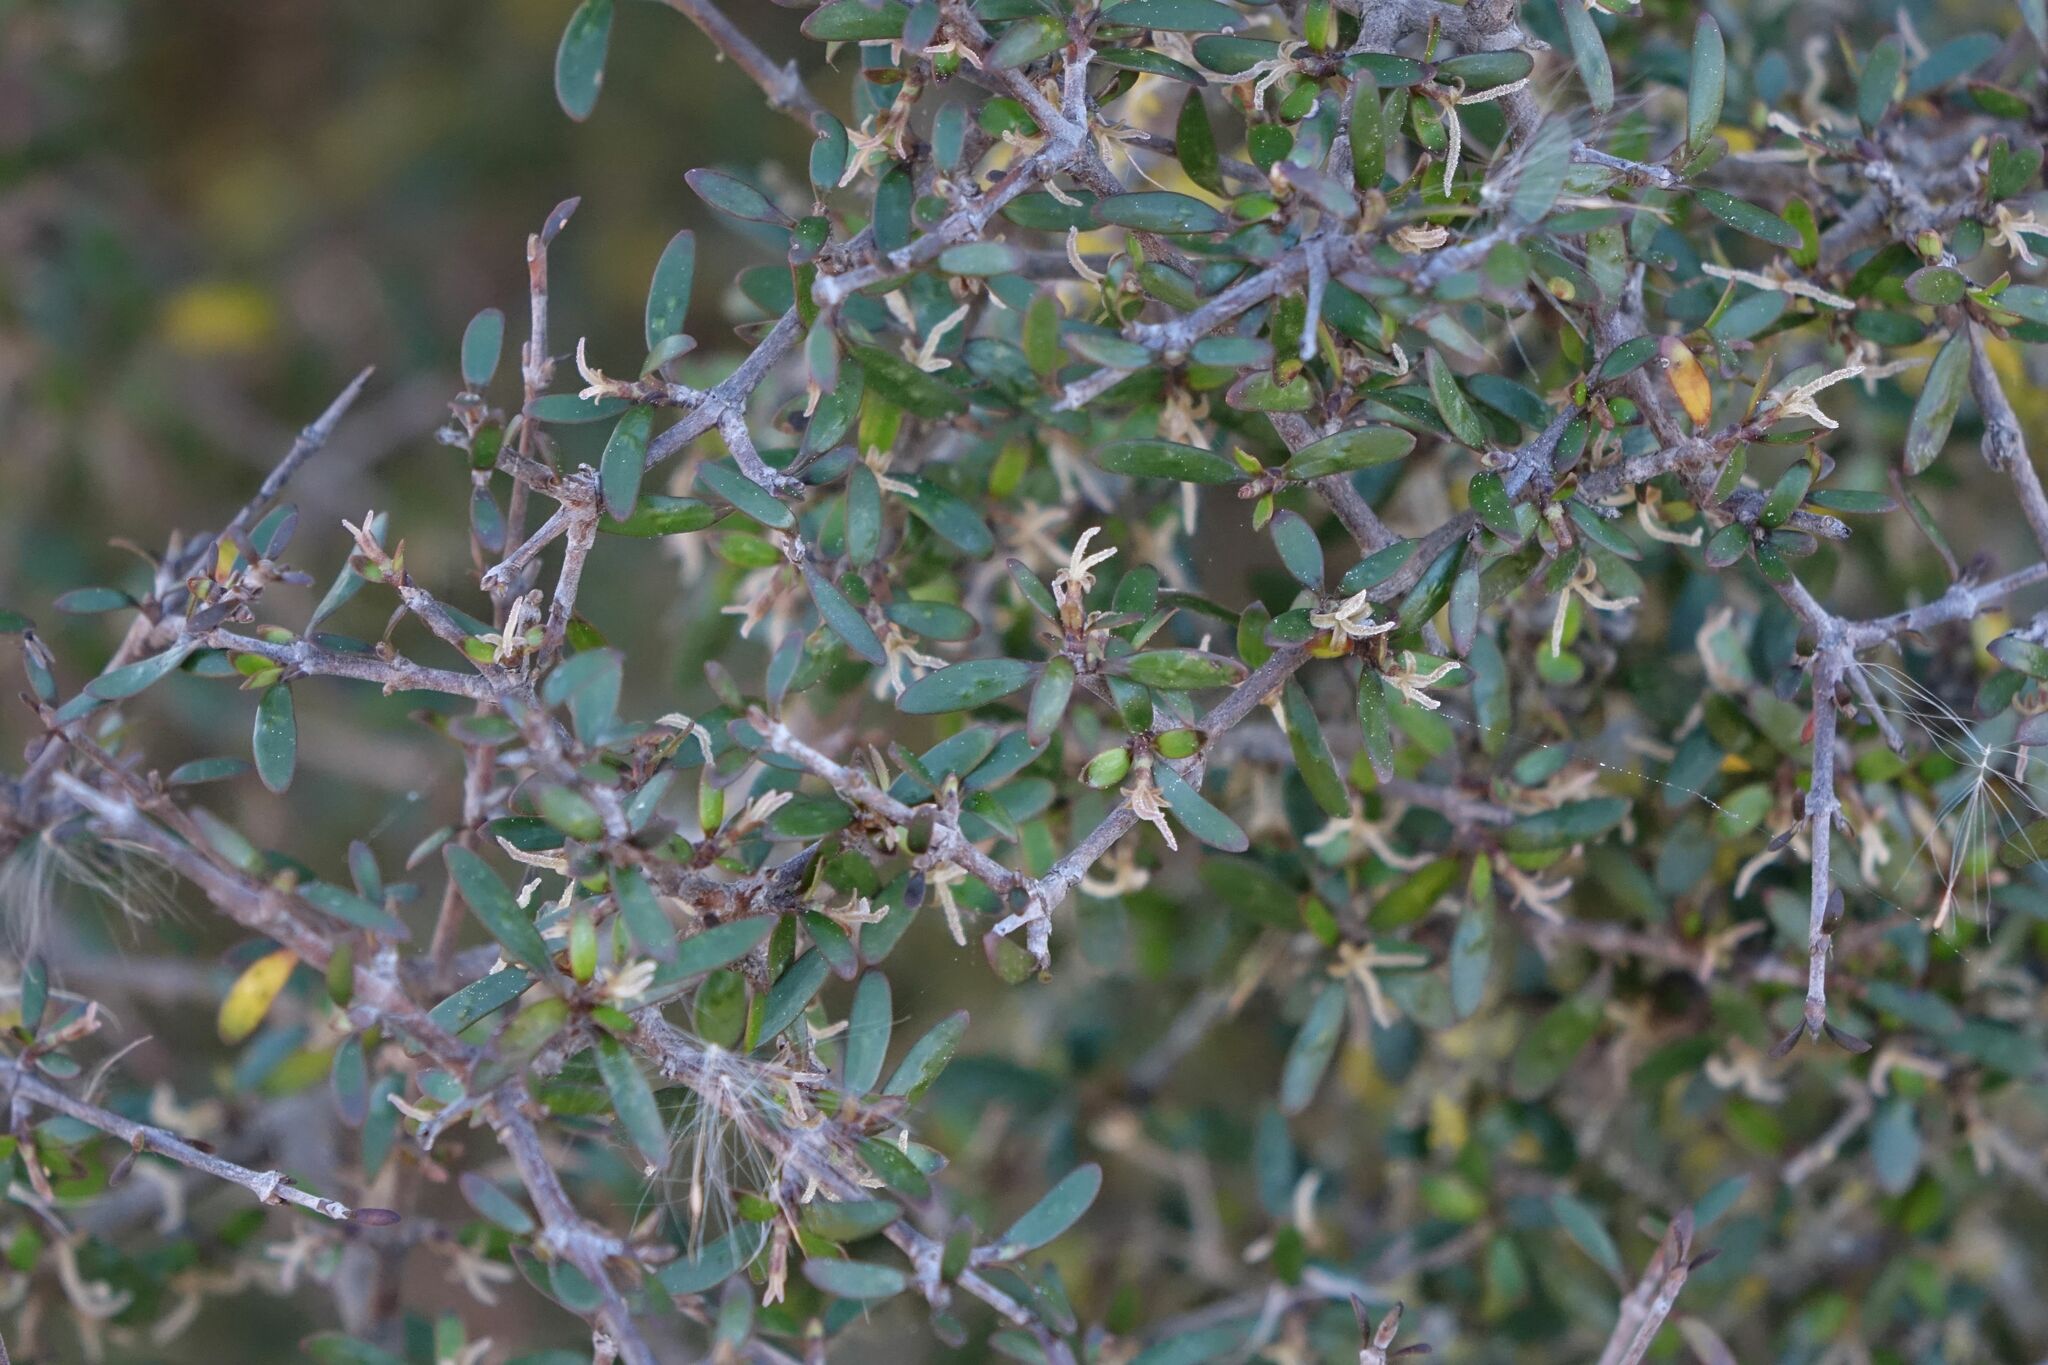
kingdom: Plantae
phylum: Tracheophyta
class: Magnoliopsida
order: Gentianales
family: Rubiaceae
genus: Coprosma
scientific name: Coprosma propinqua
